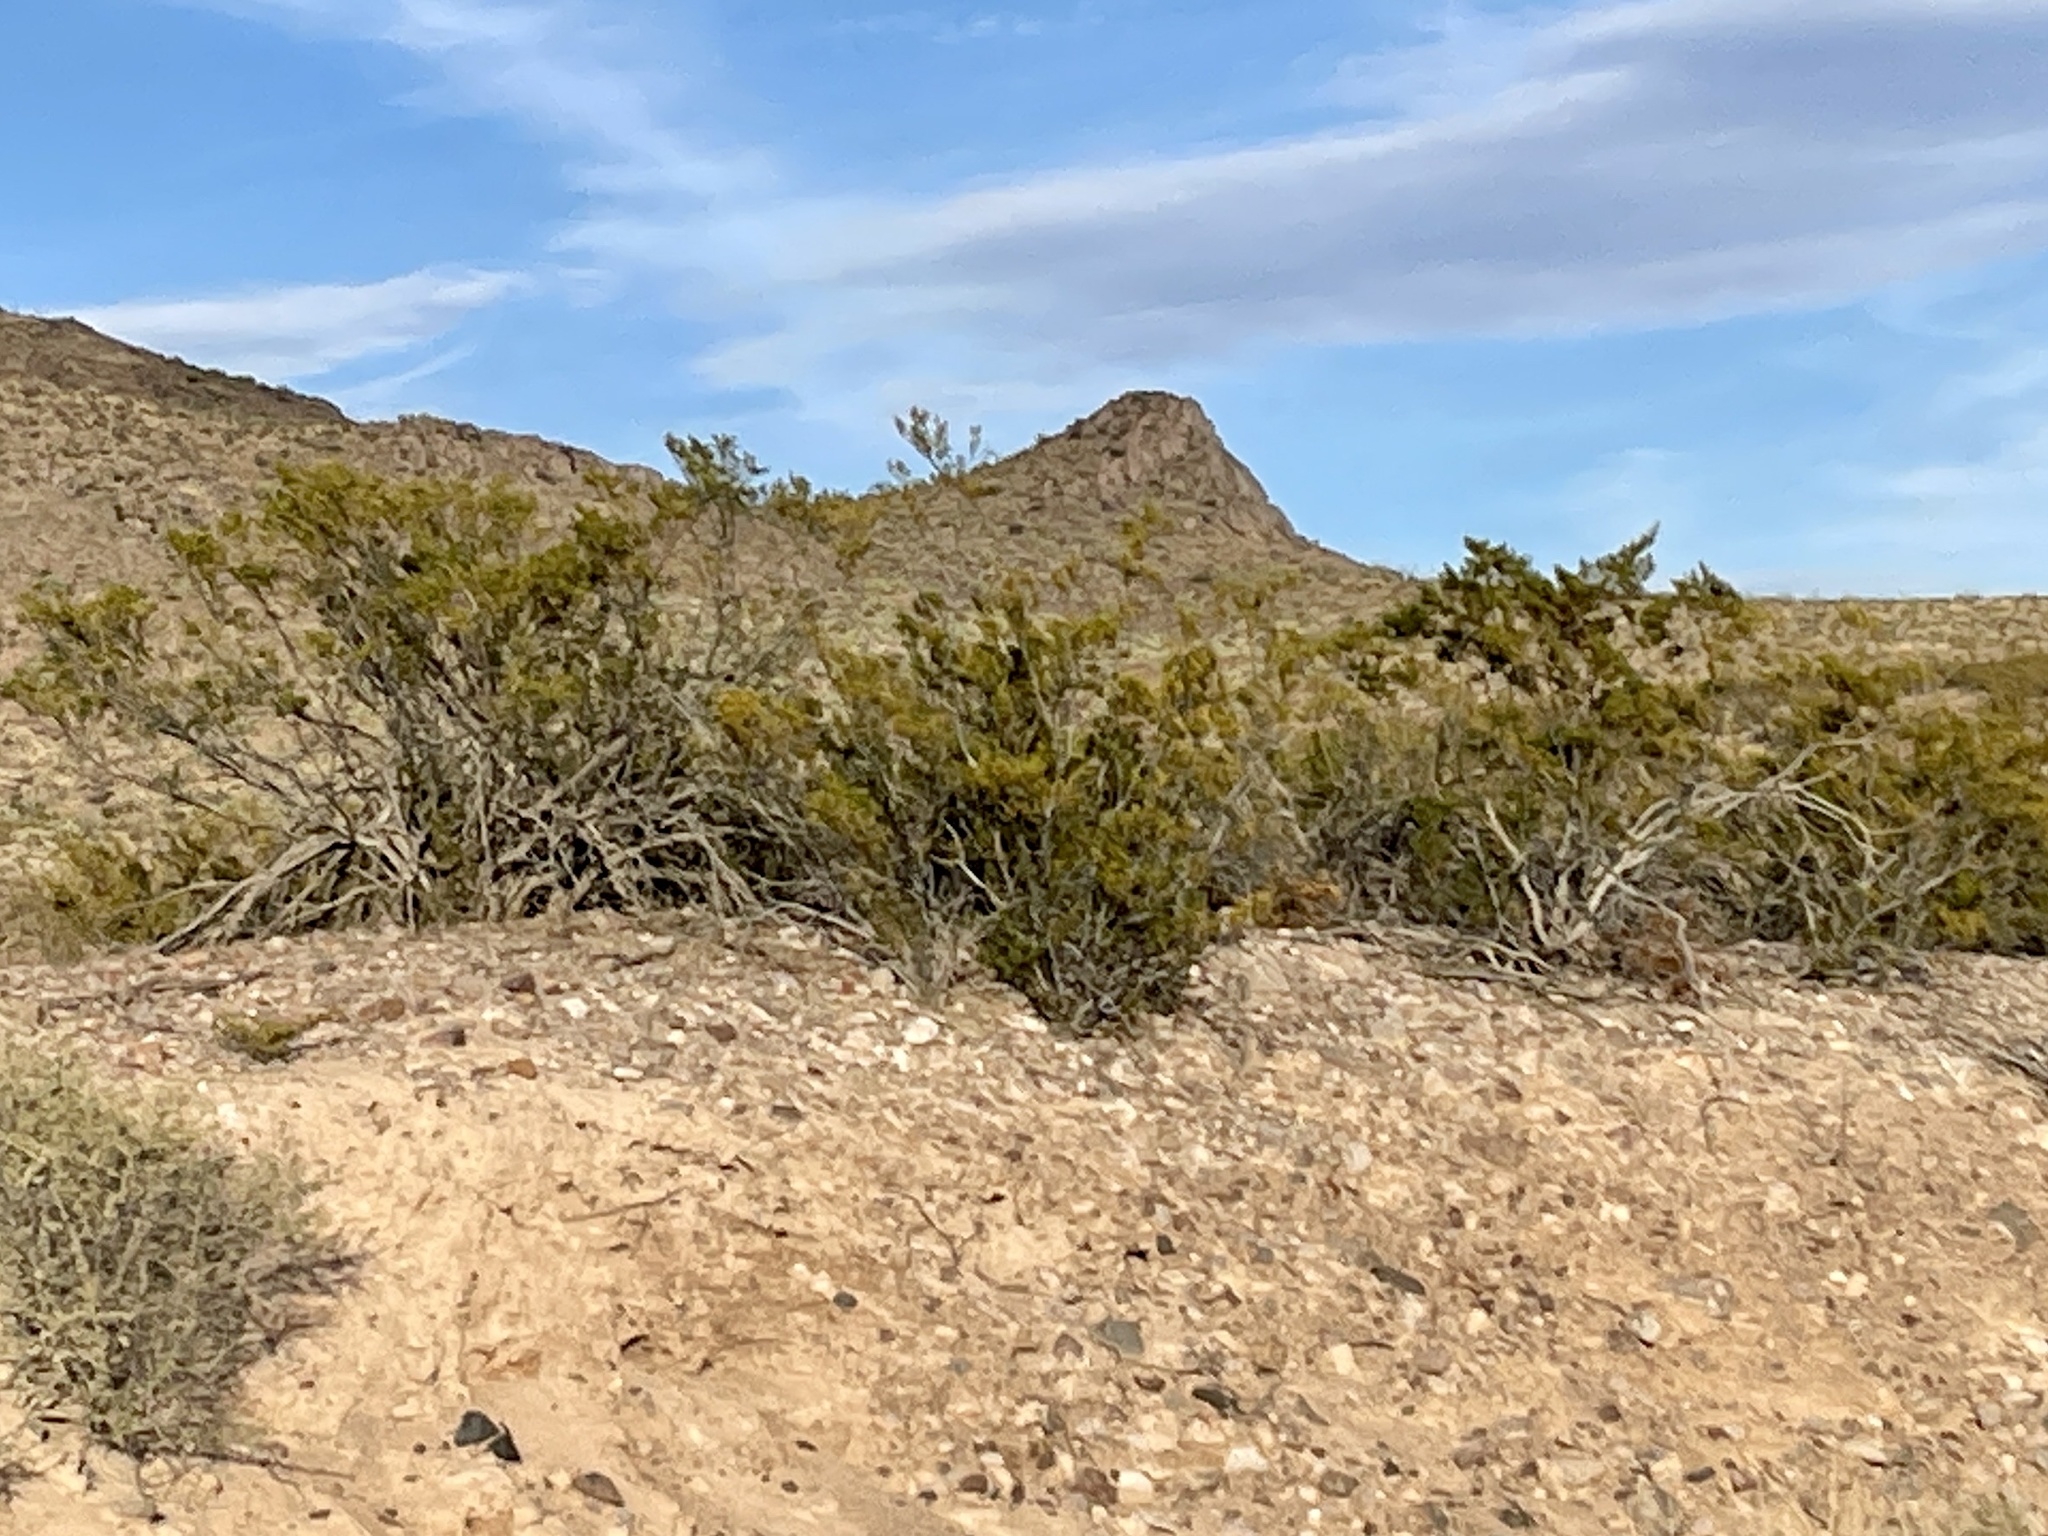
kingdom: Plantae
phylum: Tracheophyta
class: Magnoliopsida
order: Zygophyllales
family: Zygophyllaceae
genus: Larrea
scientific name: Larrea tridentata
